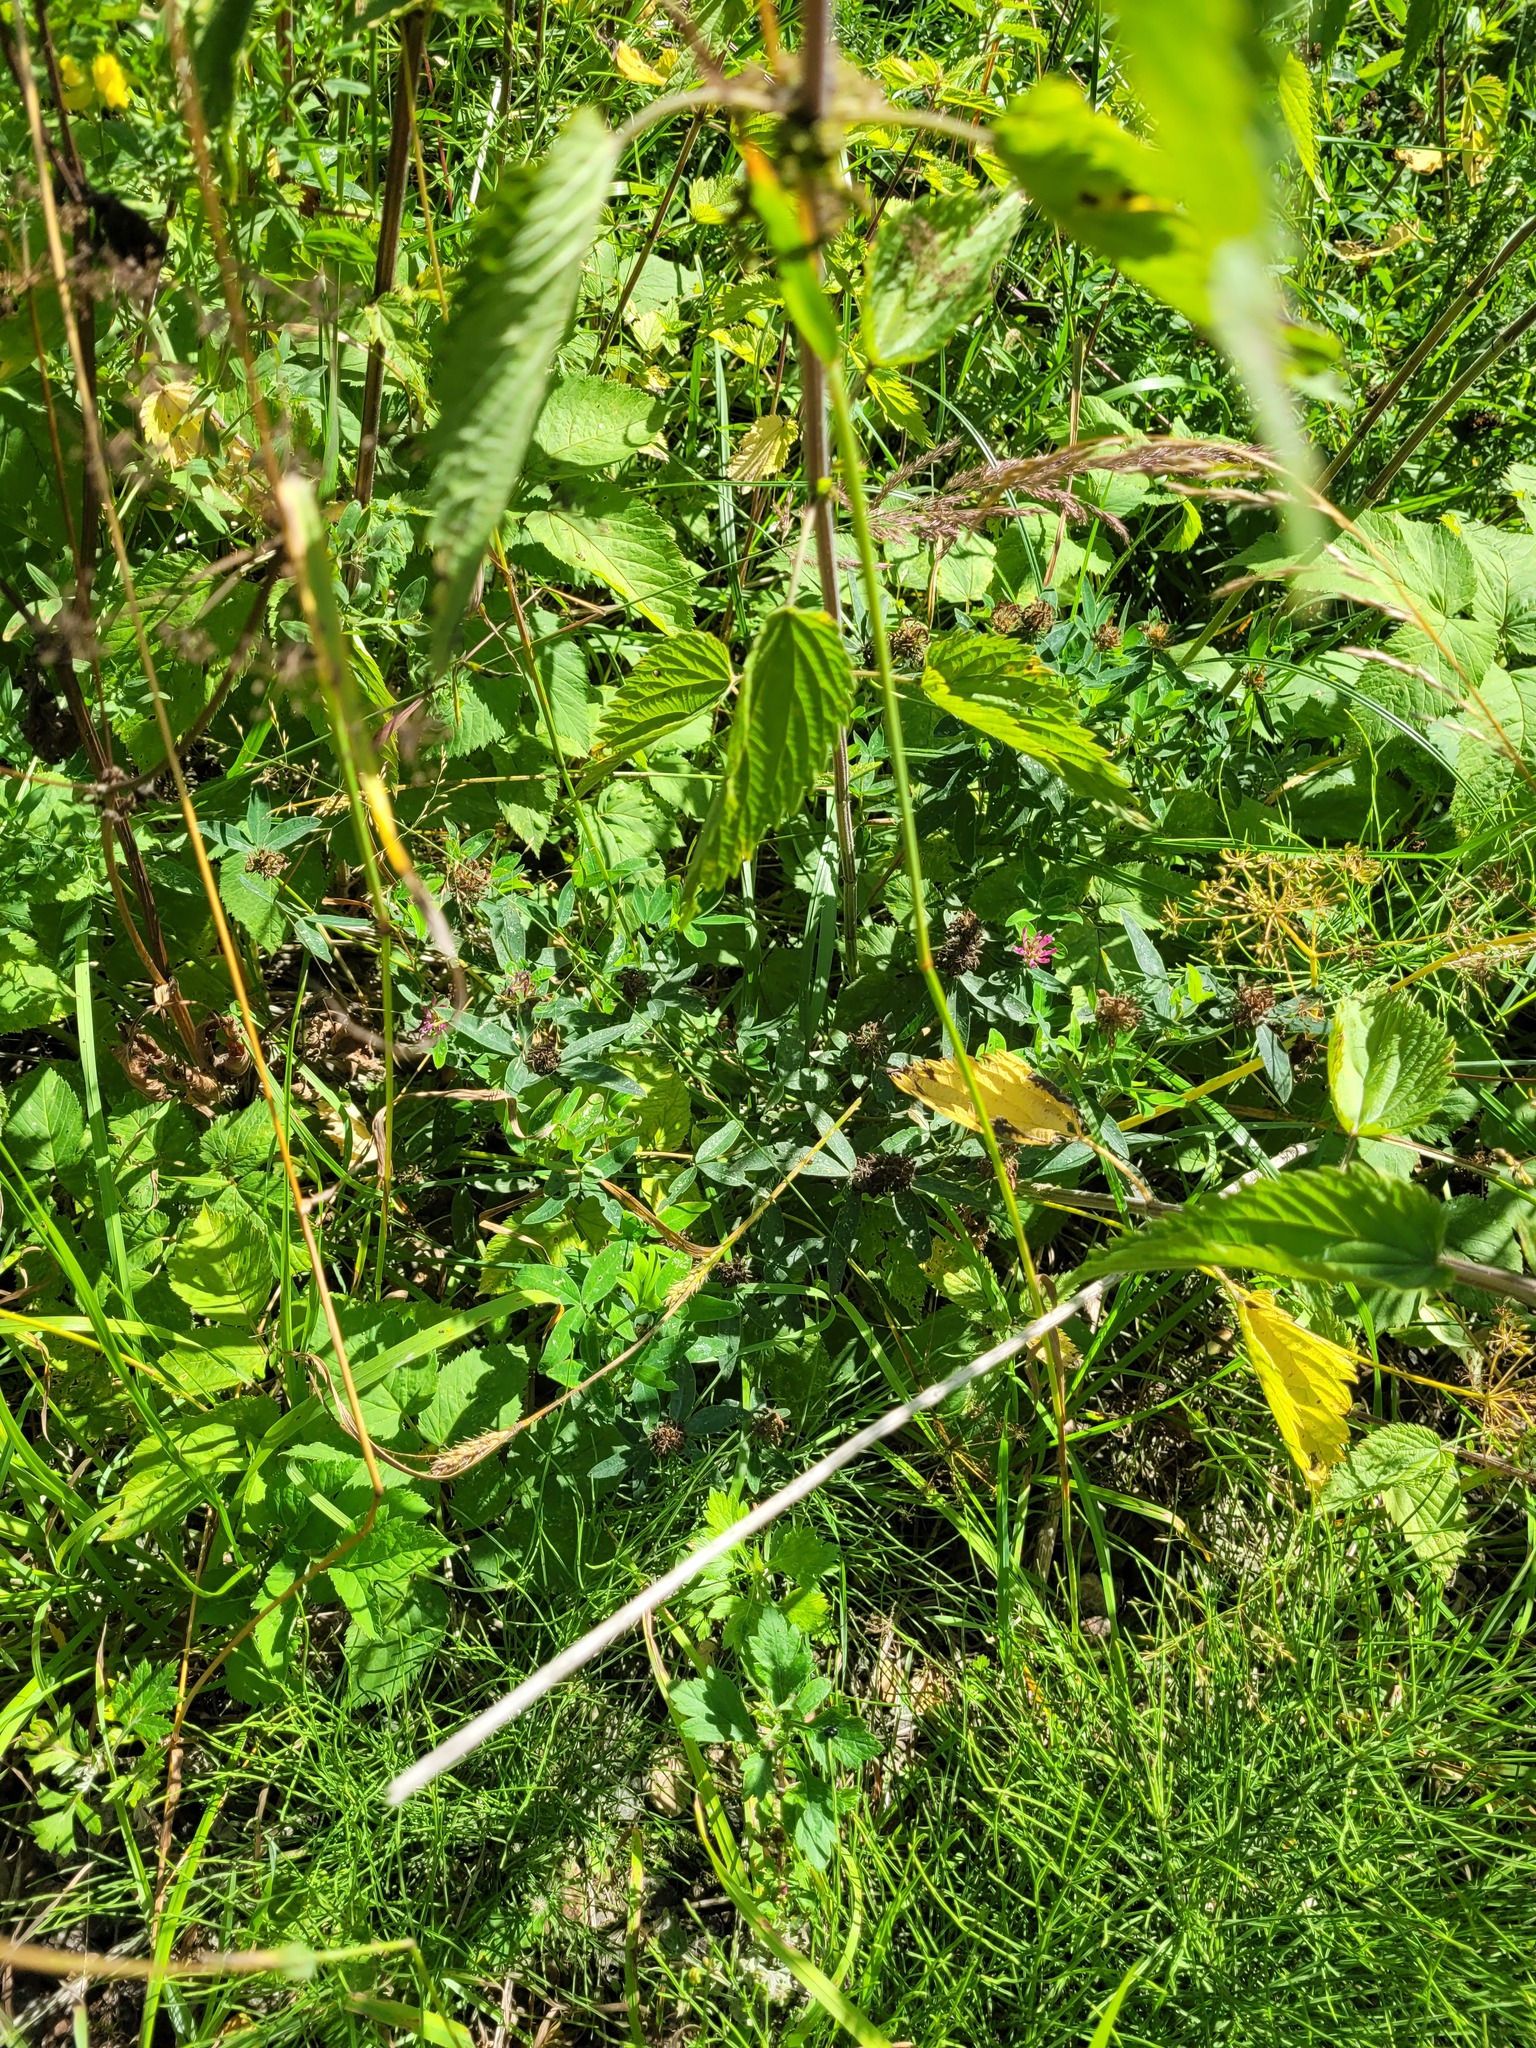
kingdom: Plantae
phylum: Tracheophyta
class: Magnoliopsida
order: Fabales
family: Fabaceae
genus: Trifolium
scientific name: Trifolium medium
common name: Zigzag clover
